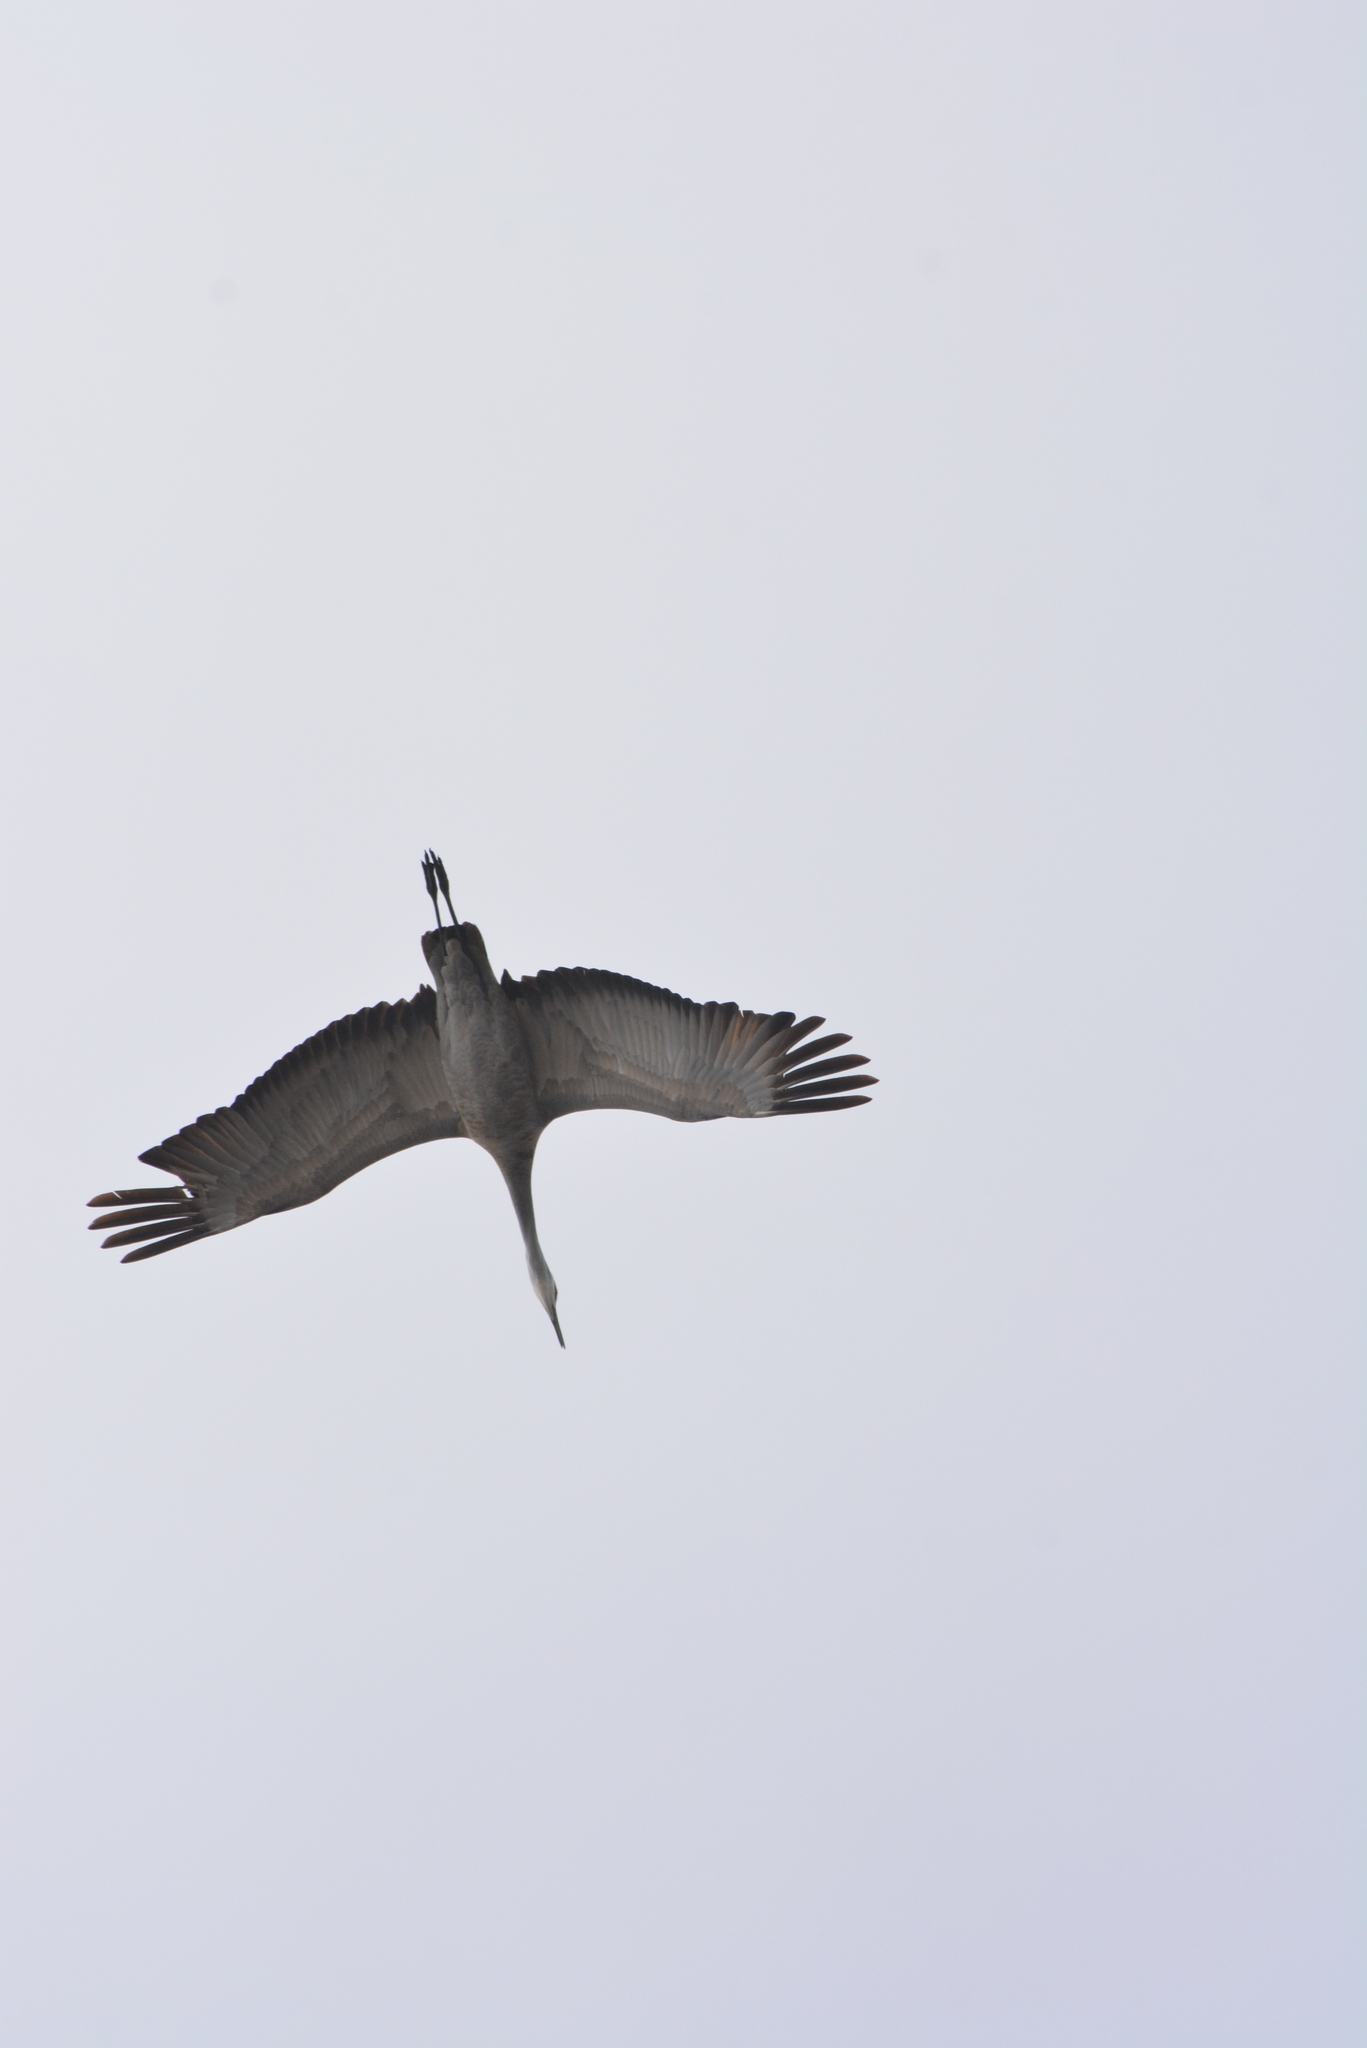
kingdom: Animalia
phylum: Chordata
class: Aves
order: Gruiformes
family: Gruidae
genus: Grus
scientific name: Grus canadensis
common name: Sandhill crane
